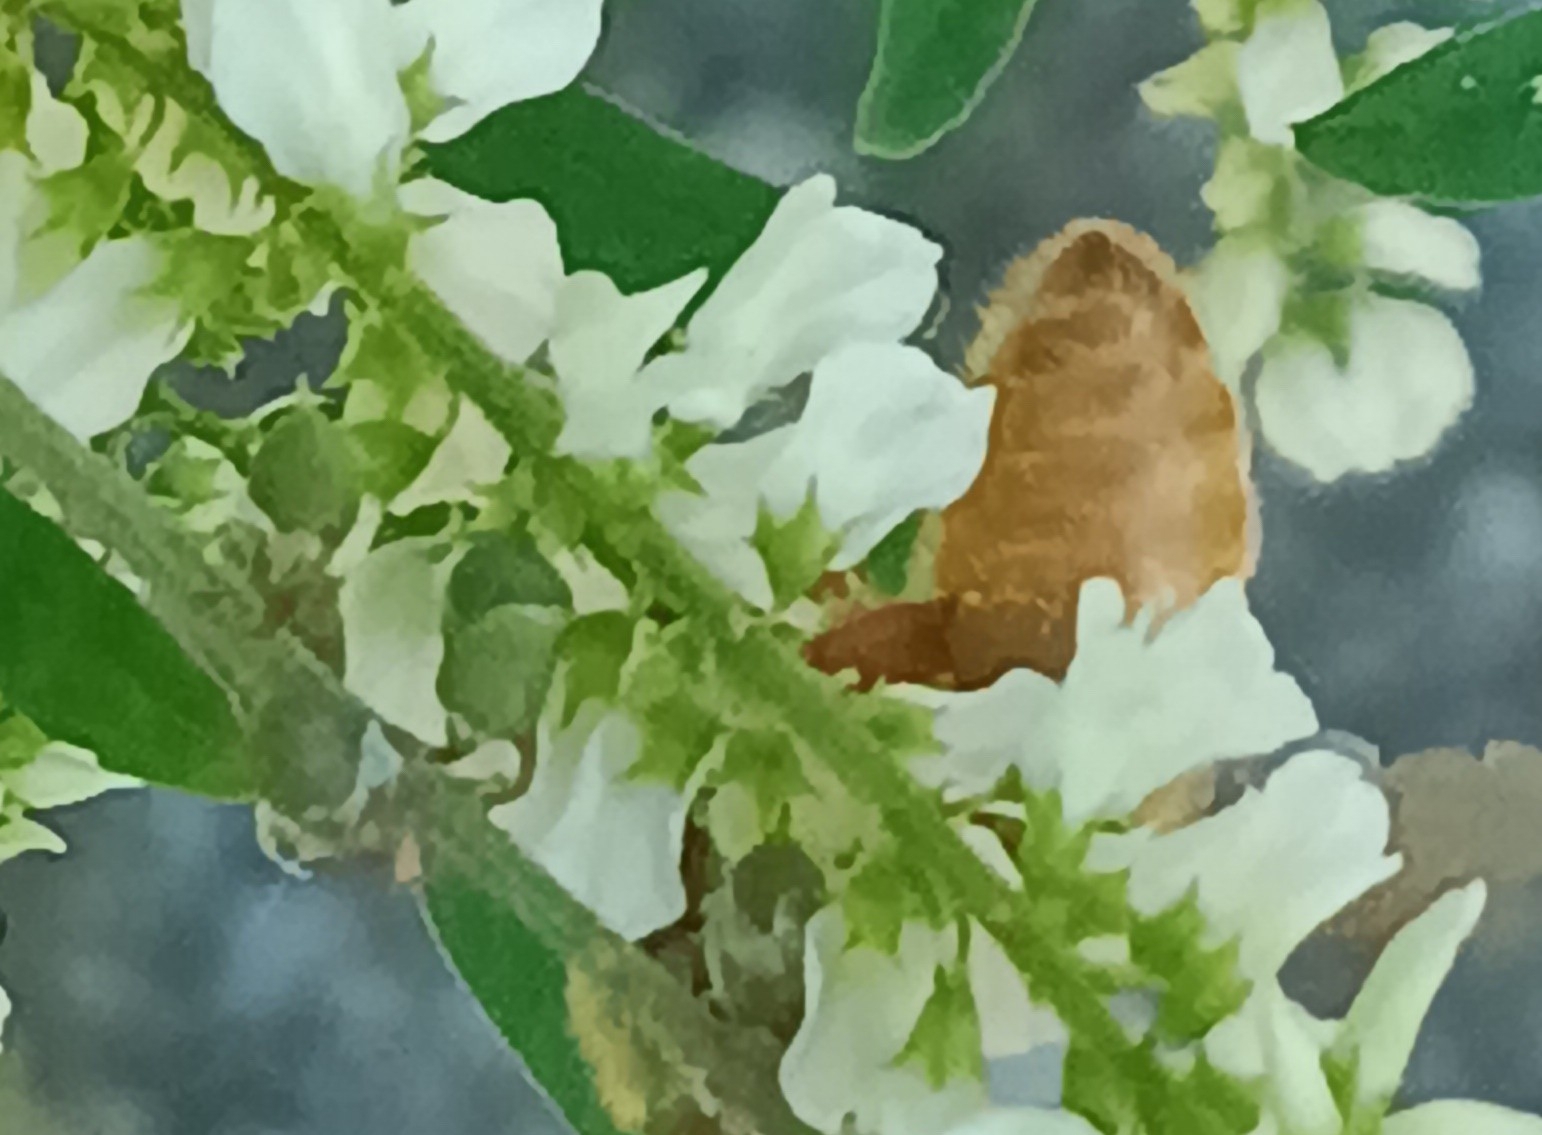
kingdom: Animalia
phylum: Arthropoda
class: Insecta
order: Hymenoptera
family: Apidae
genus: Apis
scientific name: Apis mellifera
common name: Honey bee
